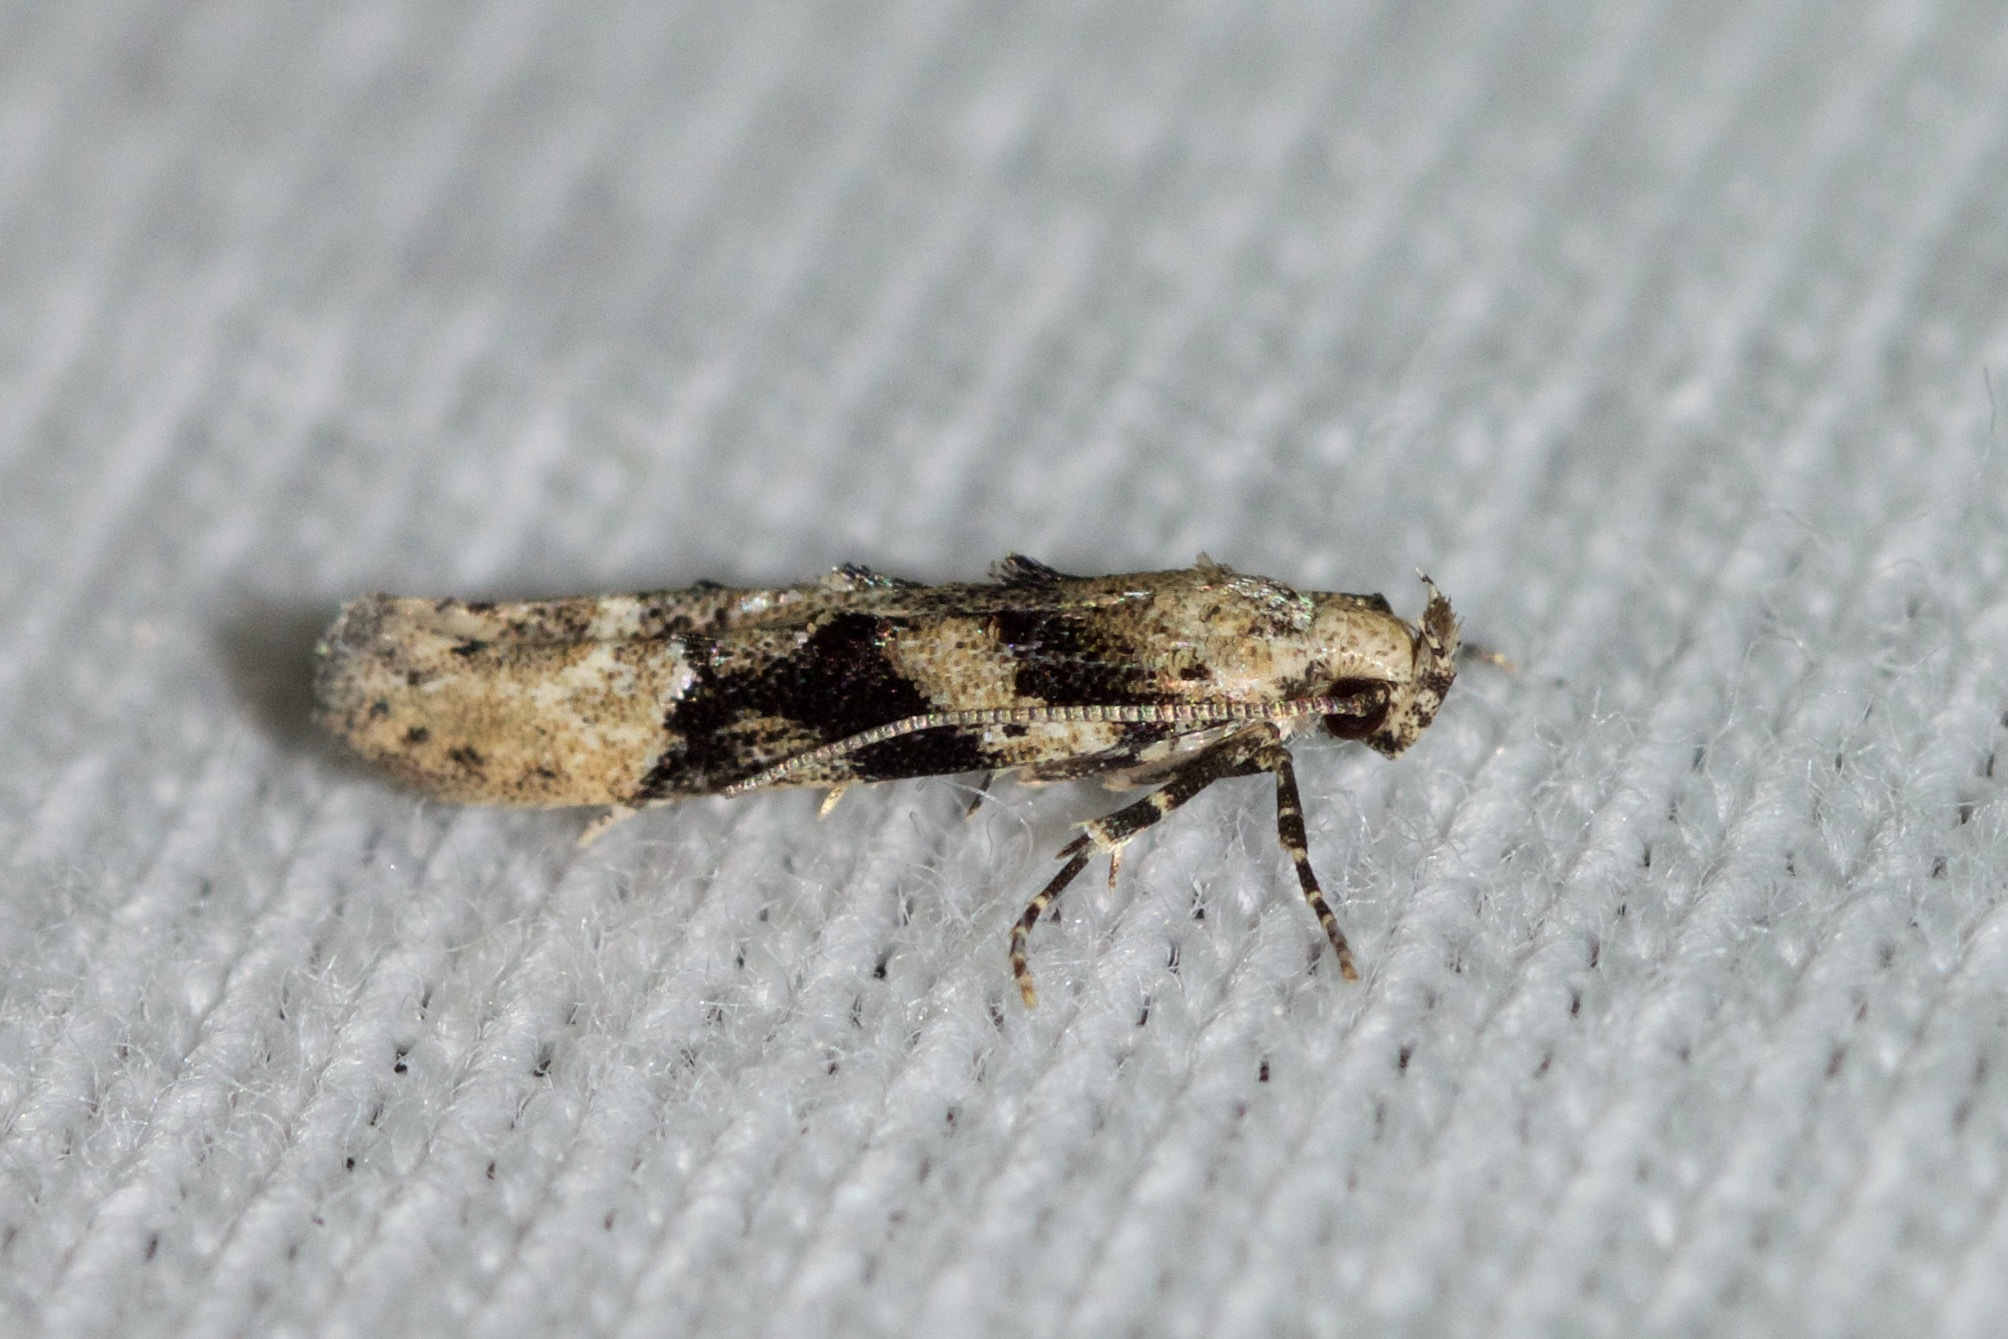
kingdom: Animalia
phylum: Arthropoda
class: Insecta
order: Lepidoptera
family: Gelechiidae
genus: Coleotechnites
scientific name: Coleotechnites atrupictella
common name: Spruce micromoth
